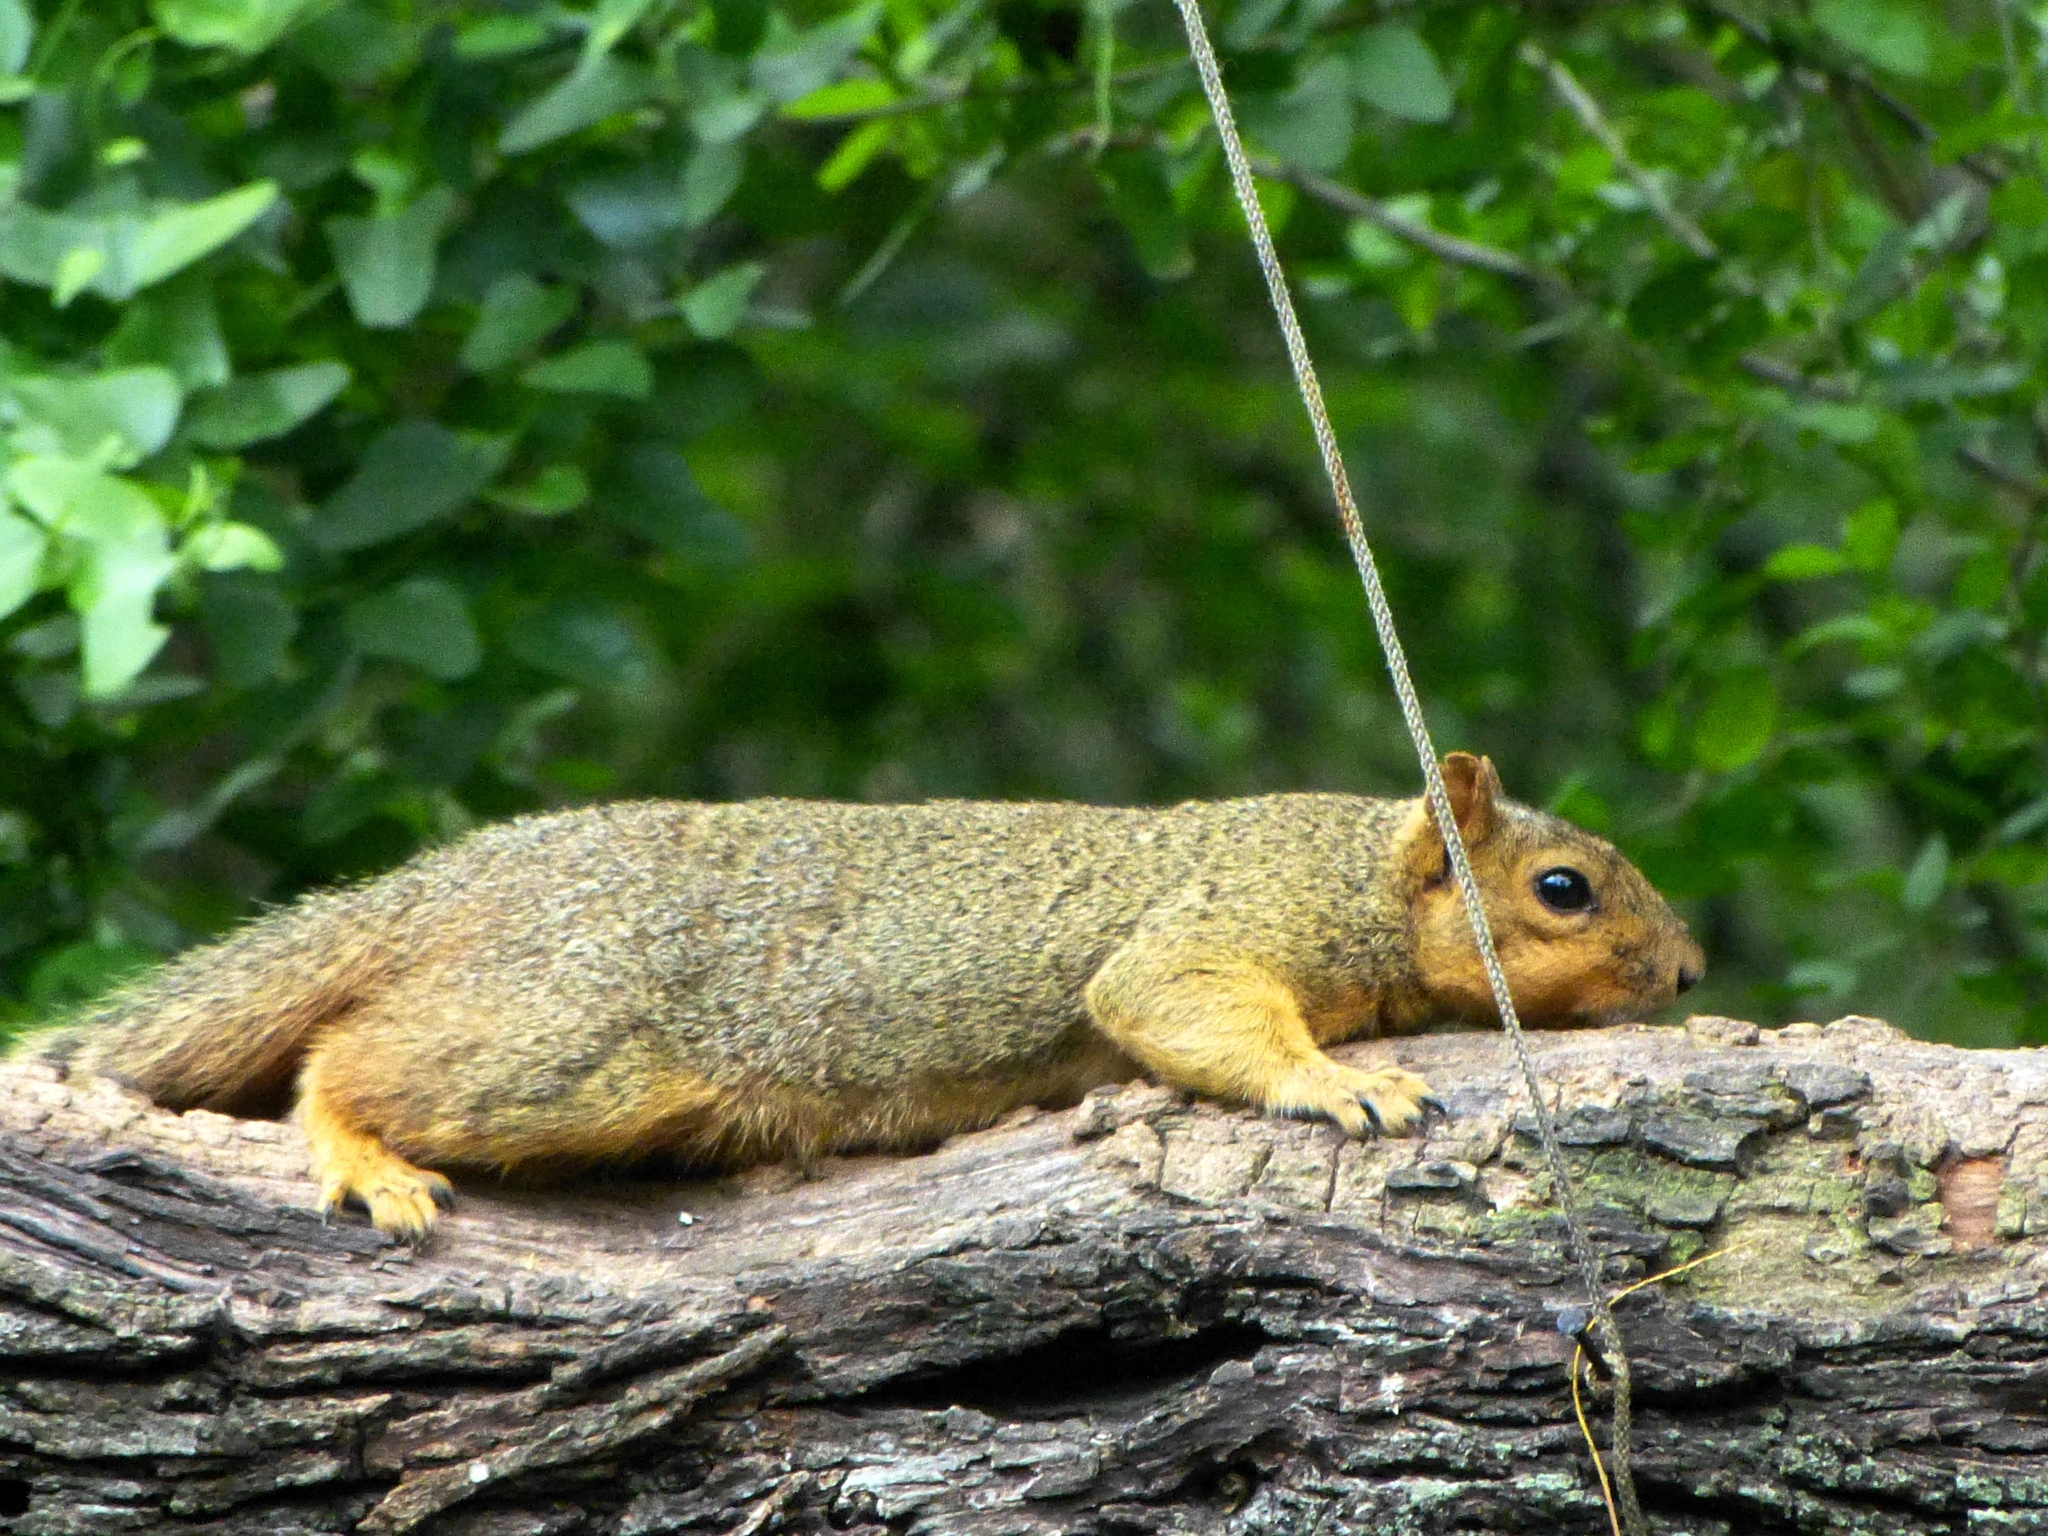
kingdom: Animalia
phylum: Chordata
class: Mammalia
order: Rodentia
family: Sciuridae
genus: Sciurus
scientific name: Sciurus niger
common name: Fox squirrel
